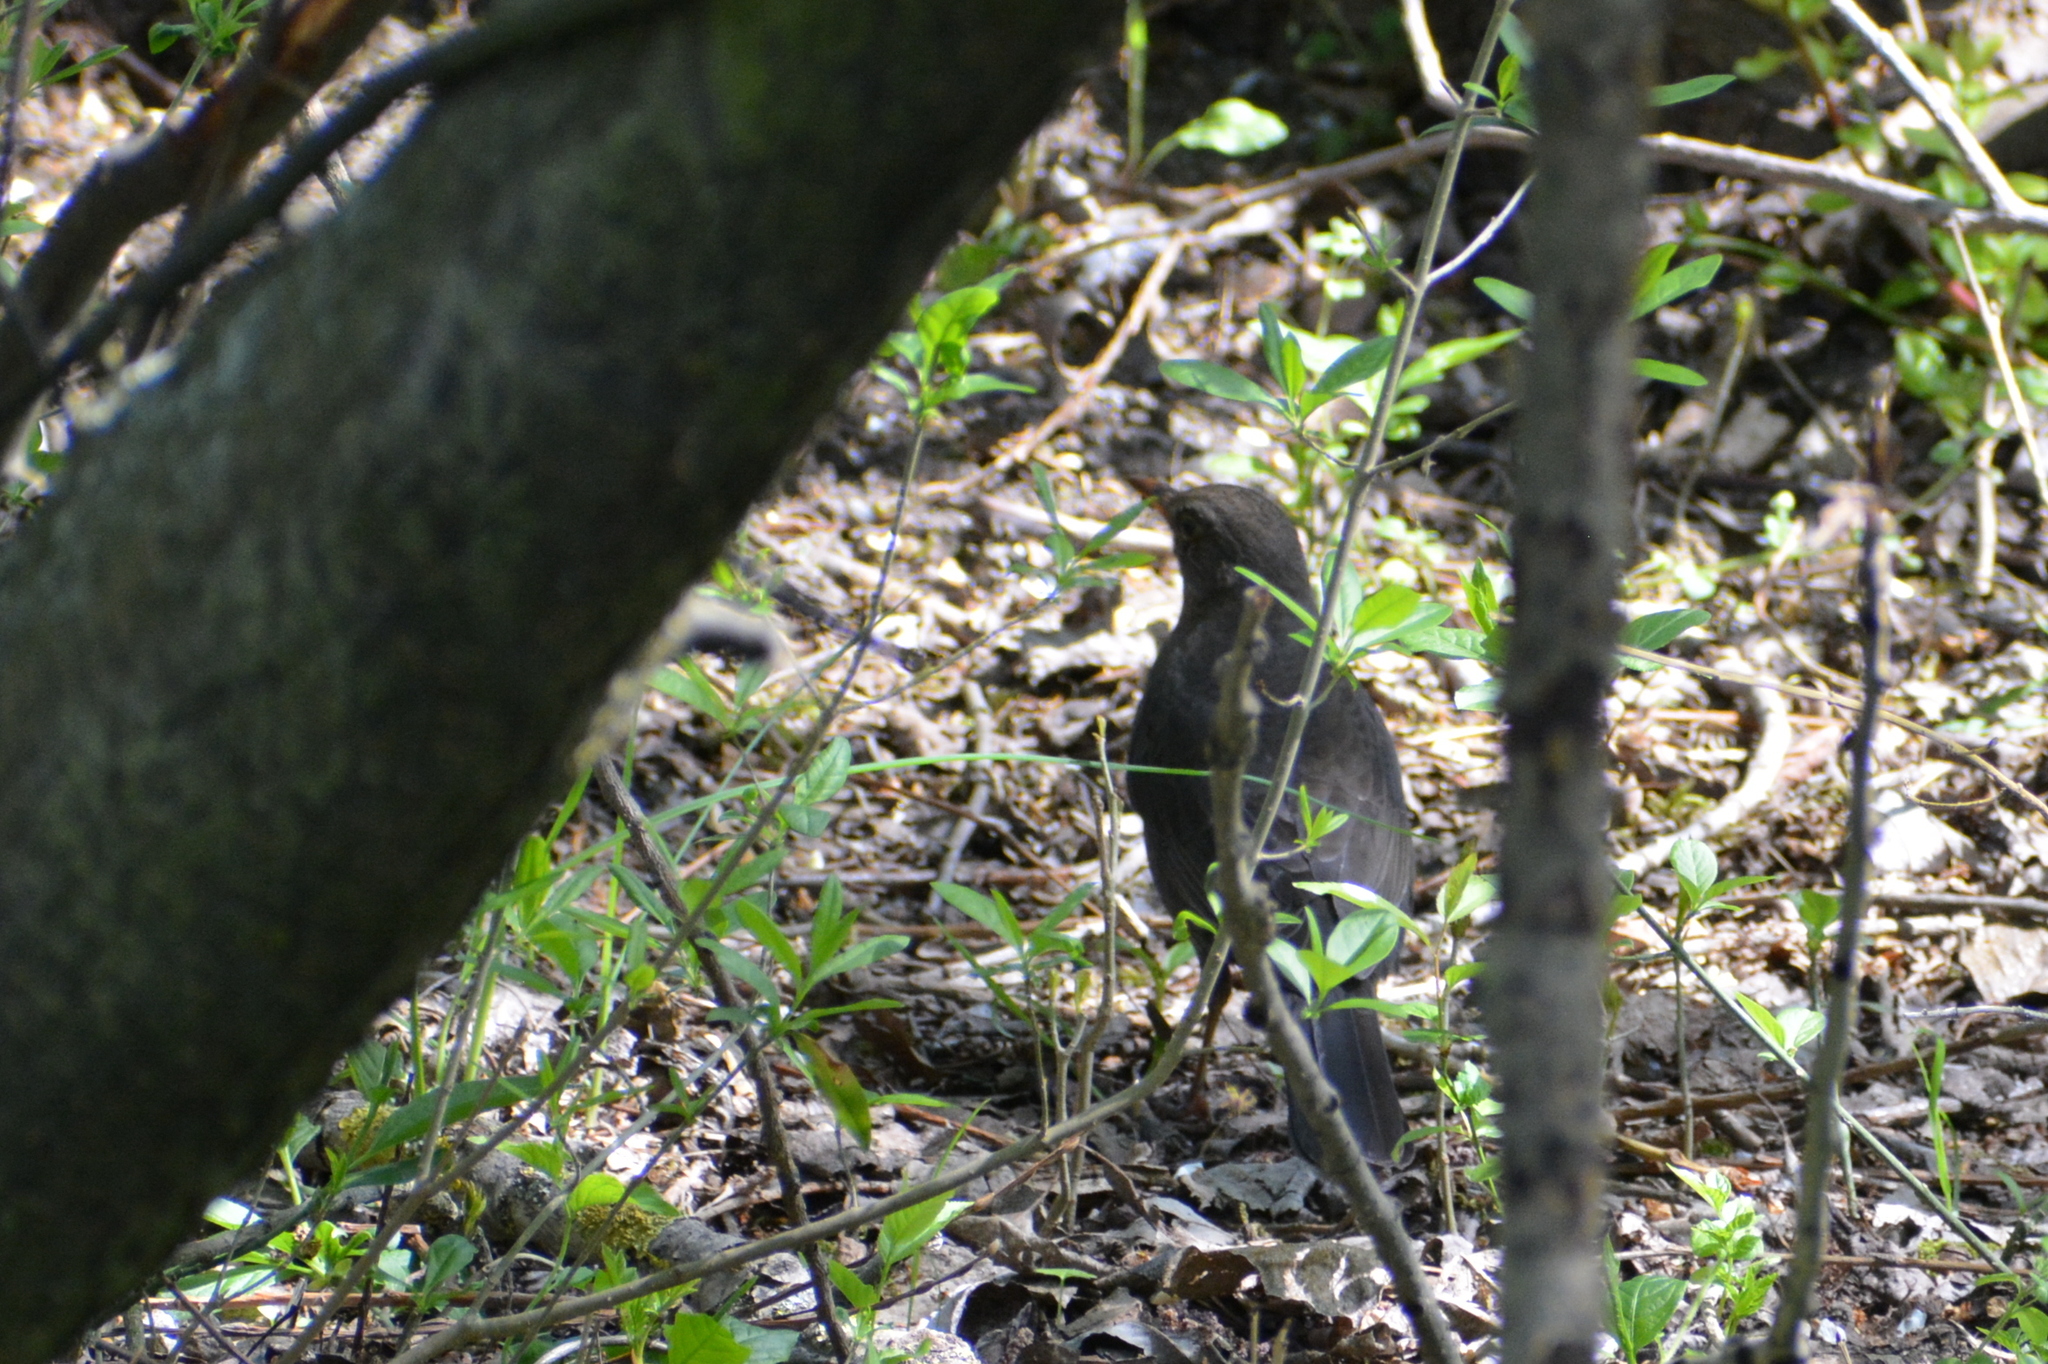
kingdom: Animalia
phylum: Chordata
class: Aves
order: Passeriformes
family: Turdidae
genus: Turdus
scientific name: Turdus merula
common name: Common blackbird
